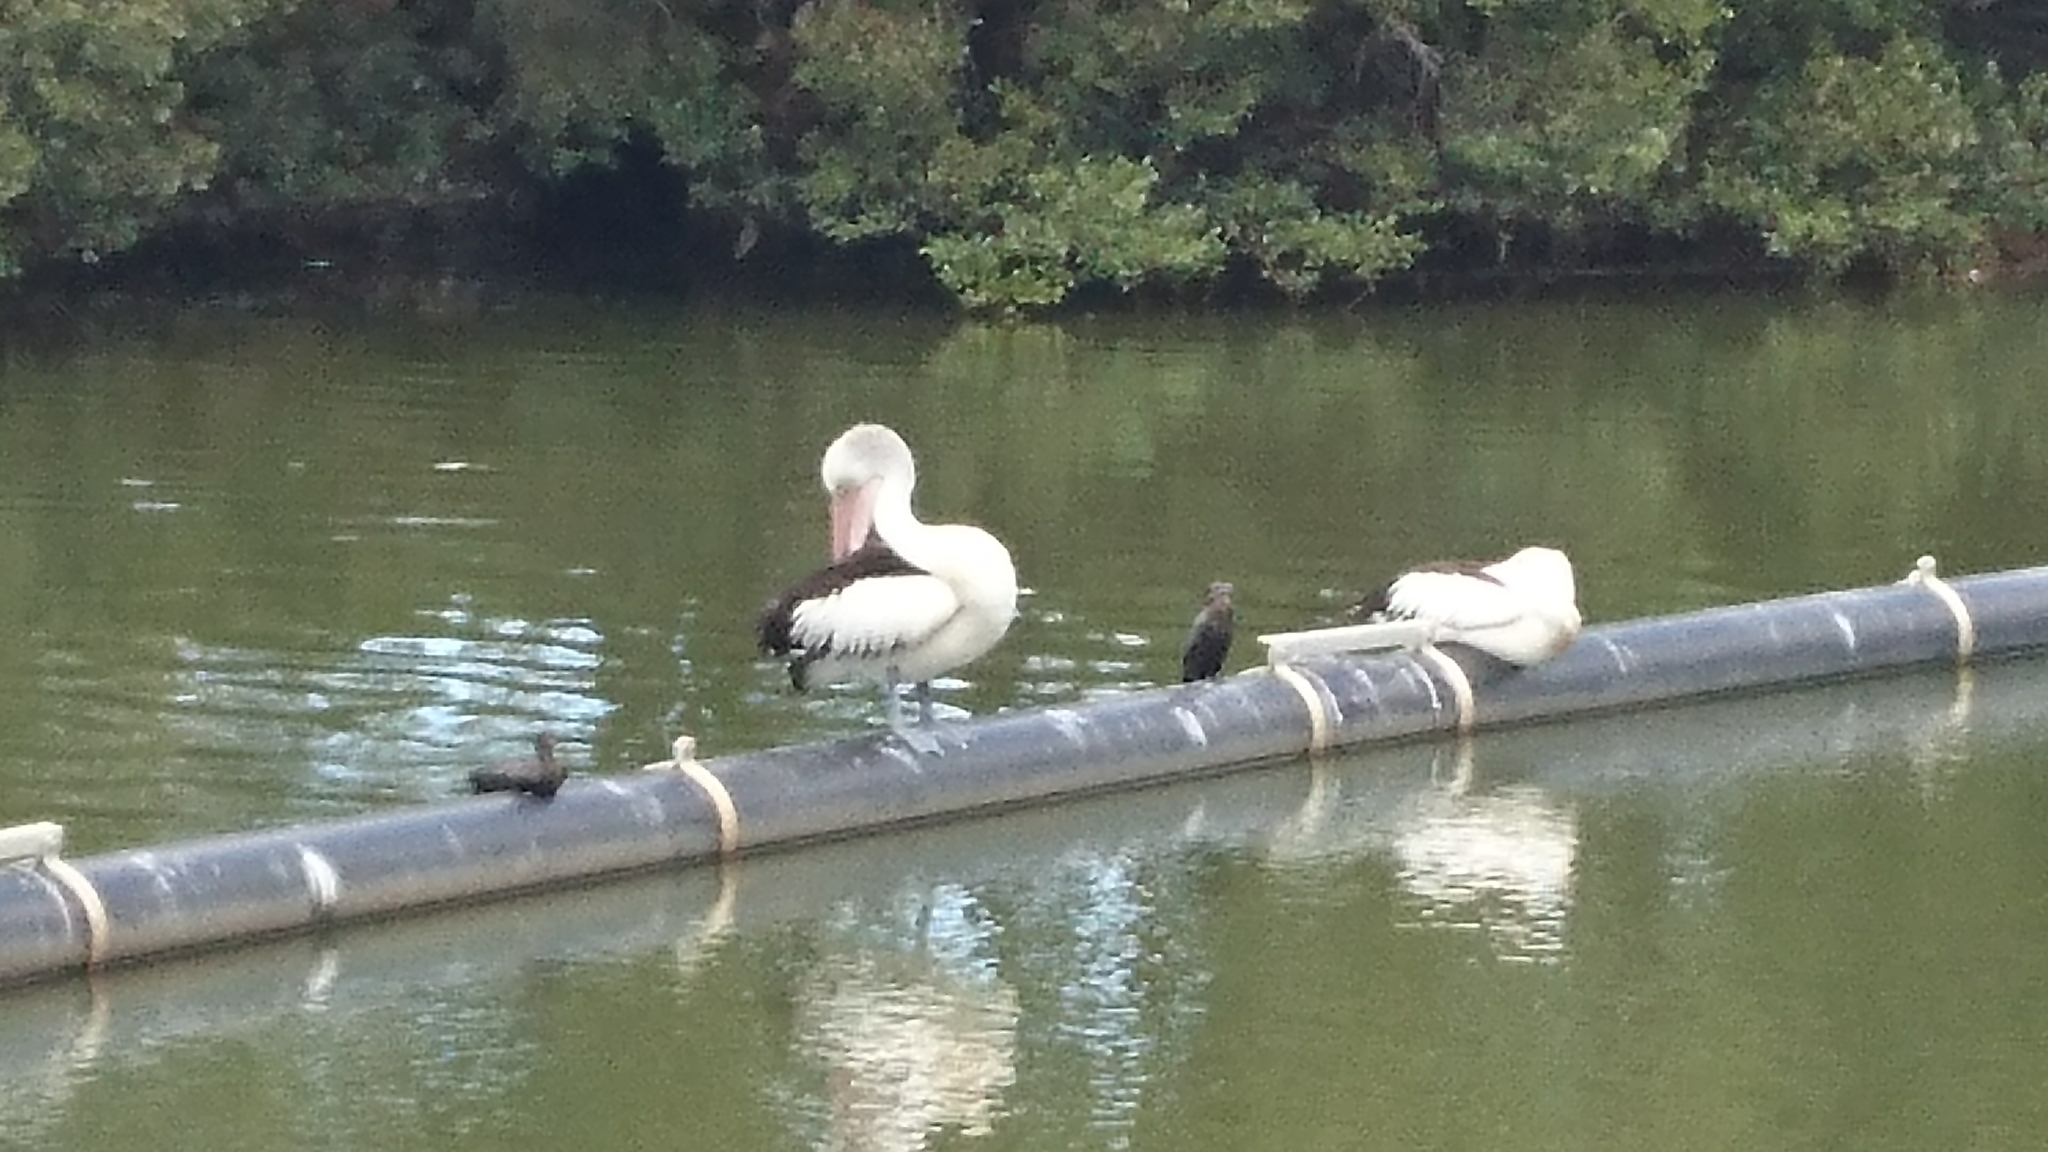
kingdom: Animalia
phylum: Chordata
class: Aves
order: Pelecaniformes
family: Pelecanidae
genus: Pelecanus
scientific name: Pelecanus conspicillatus
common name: Australian pelican
